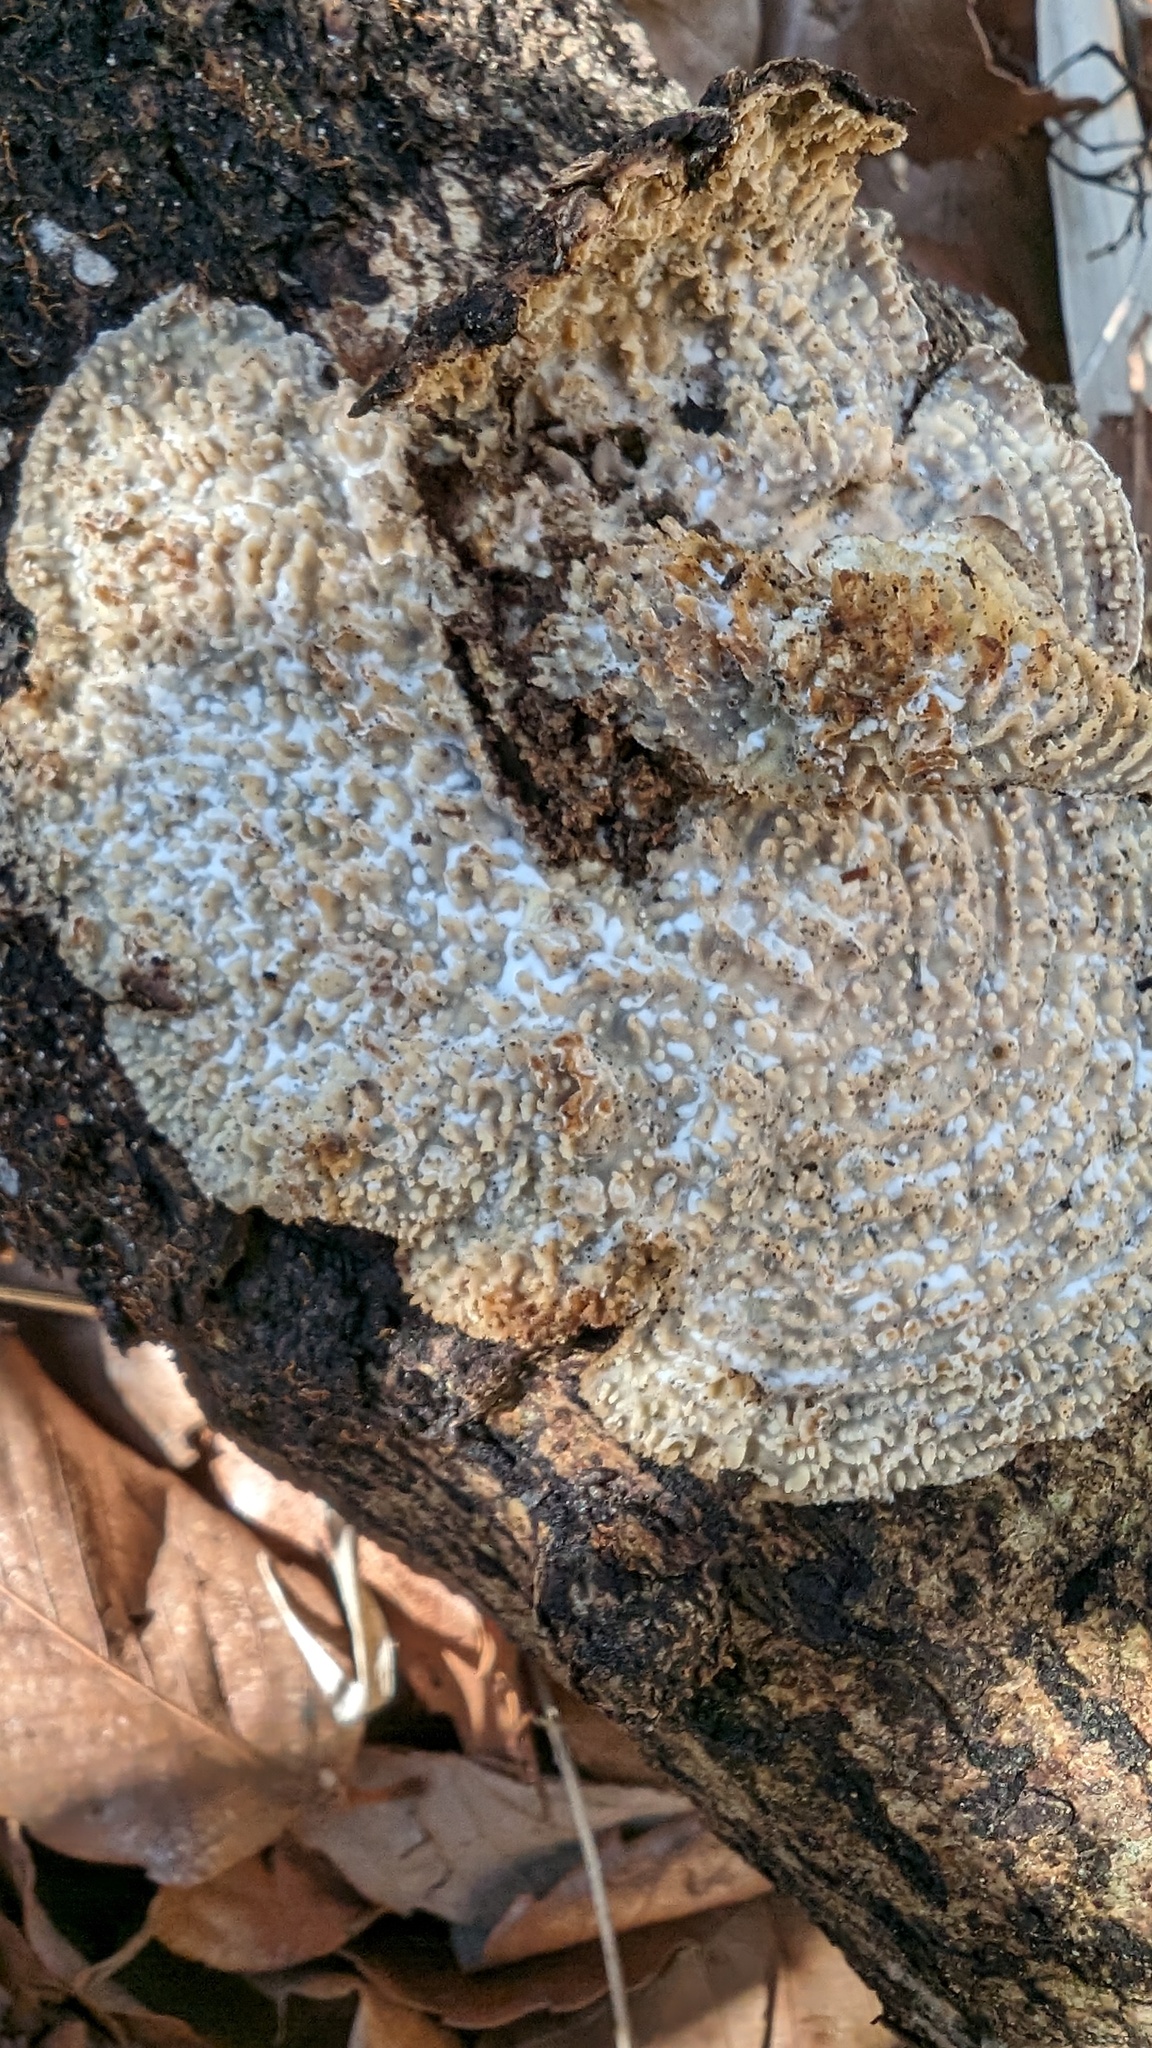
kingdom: Fungi
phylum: Basidiomycota
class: Agaricomycetes
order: Polyporales
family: Polyporaceae
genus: Lopharia
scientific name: Lopharia cinerascens
